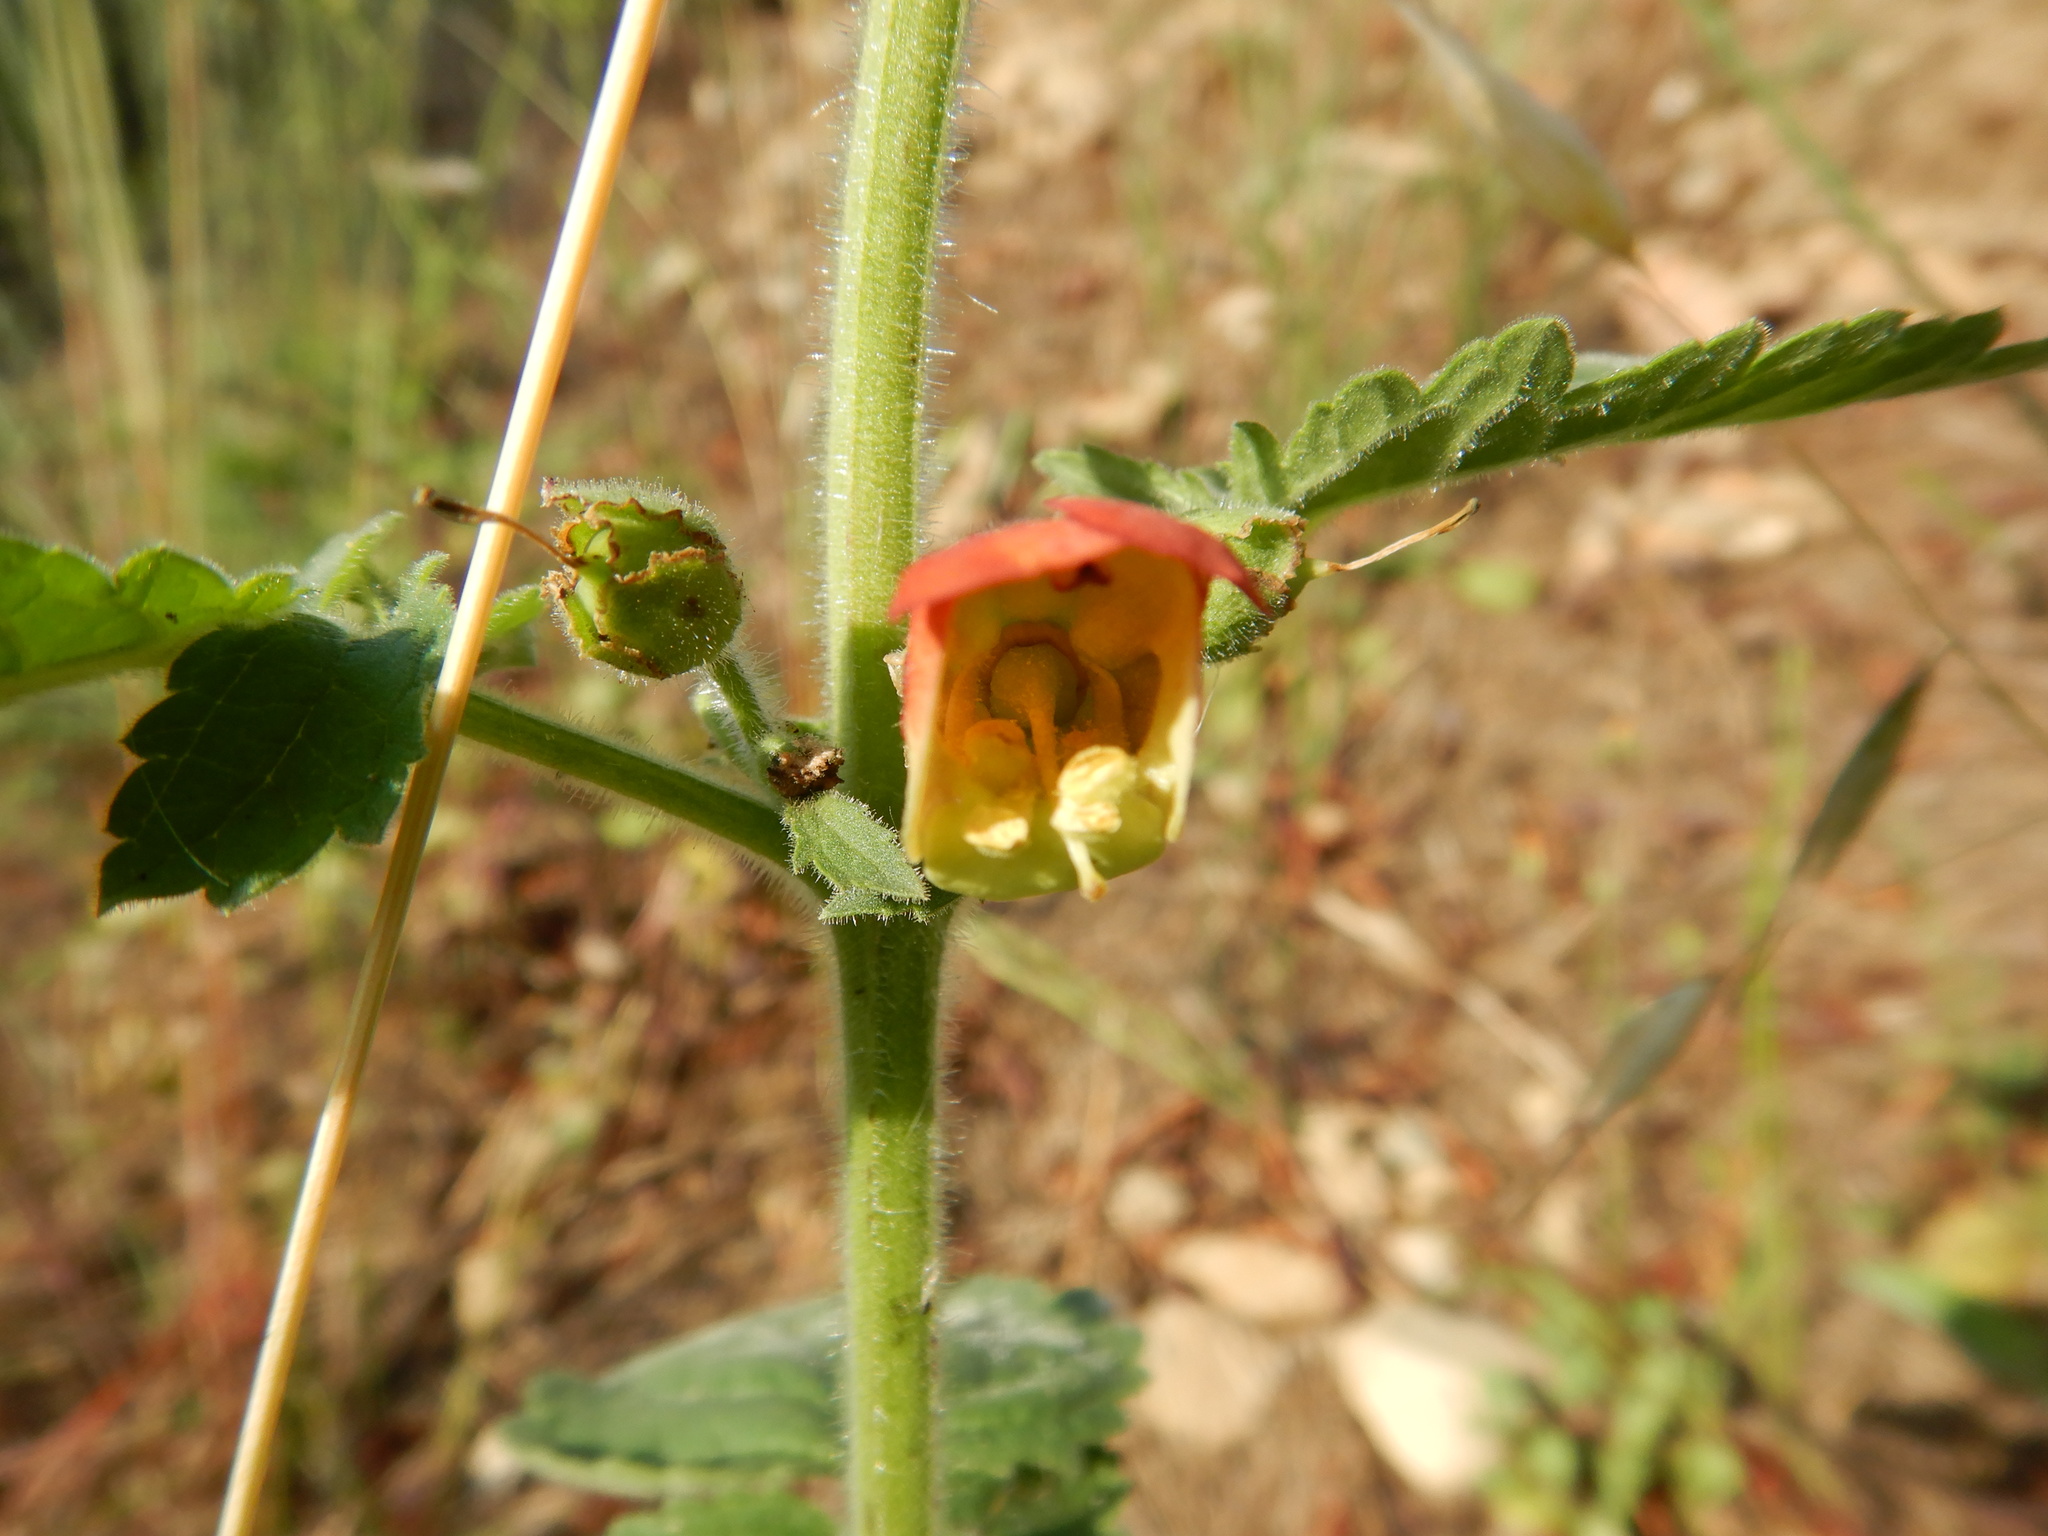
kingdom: Plantae
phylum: Tracheophyta
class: Magnoliopsida
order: Lamiales
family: Scrophulariaceae
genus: Scrophularia
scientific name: Scrophularia grandiflora
